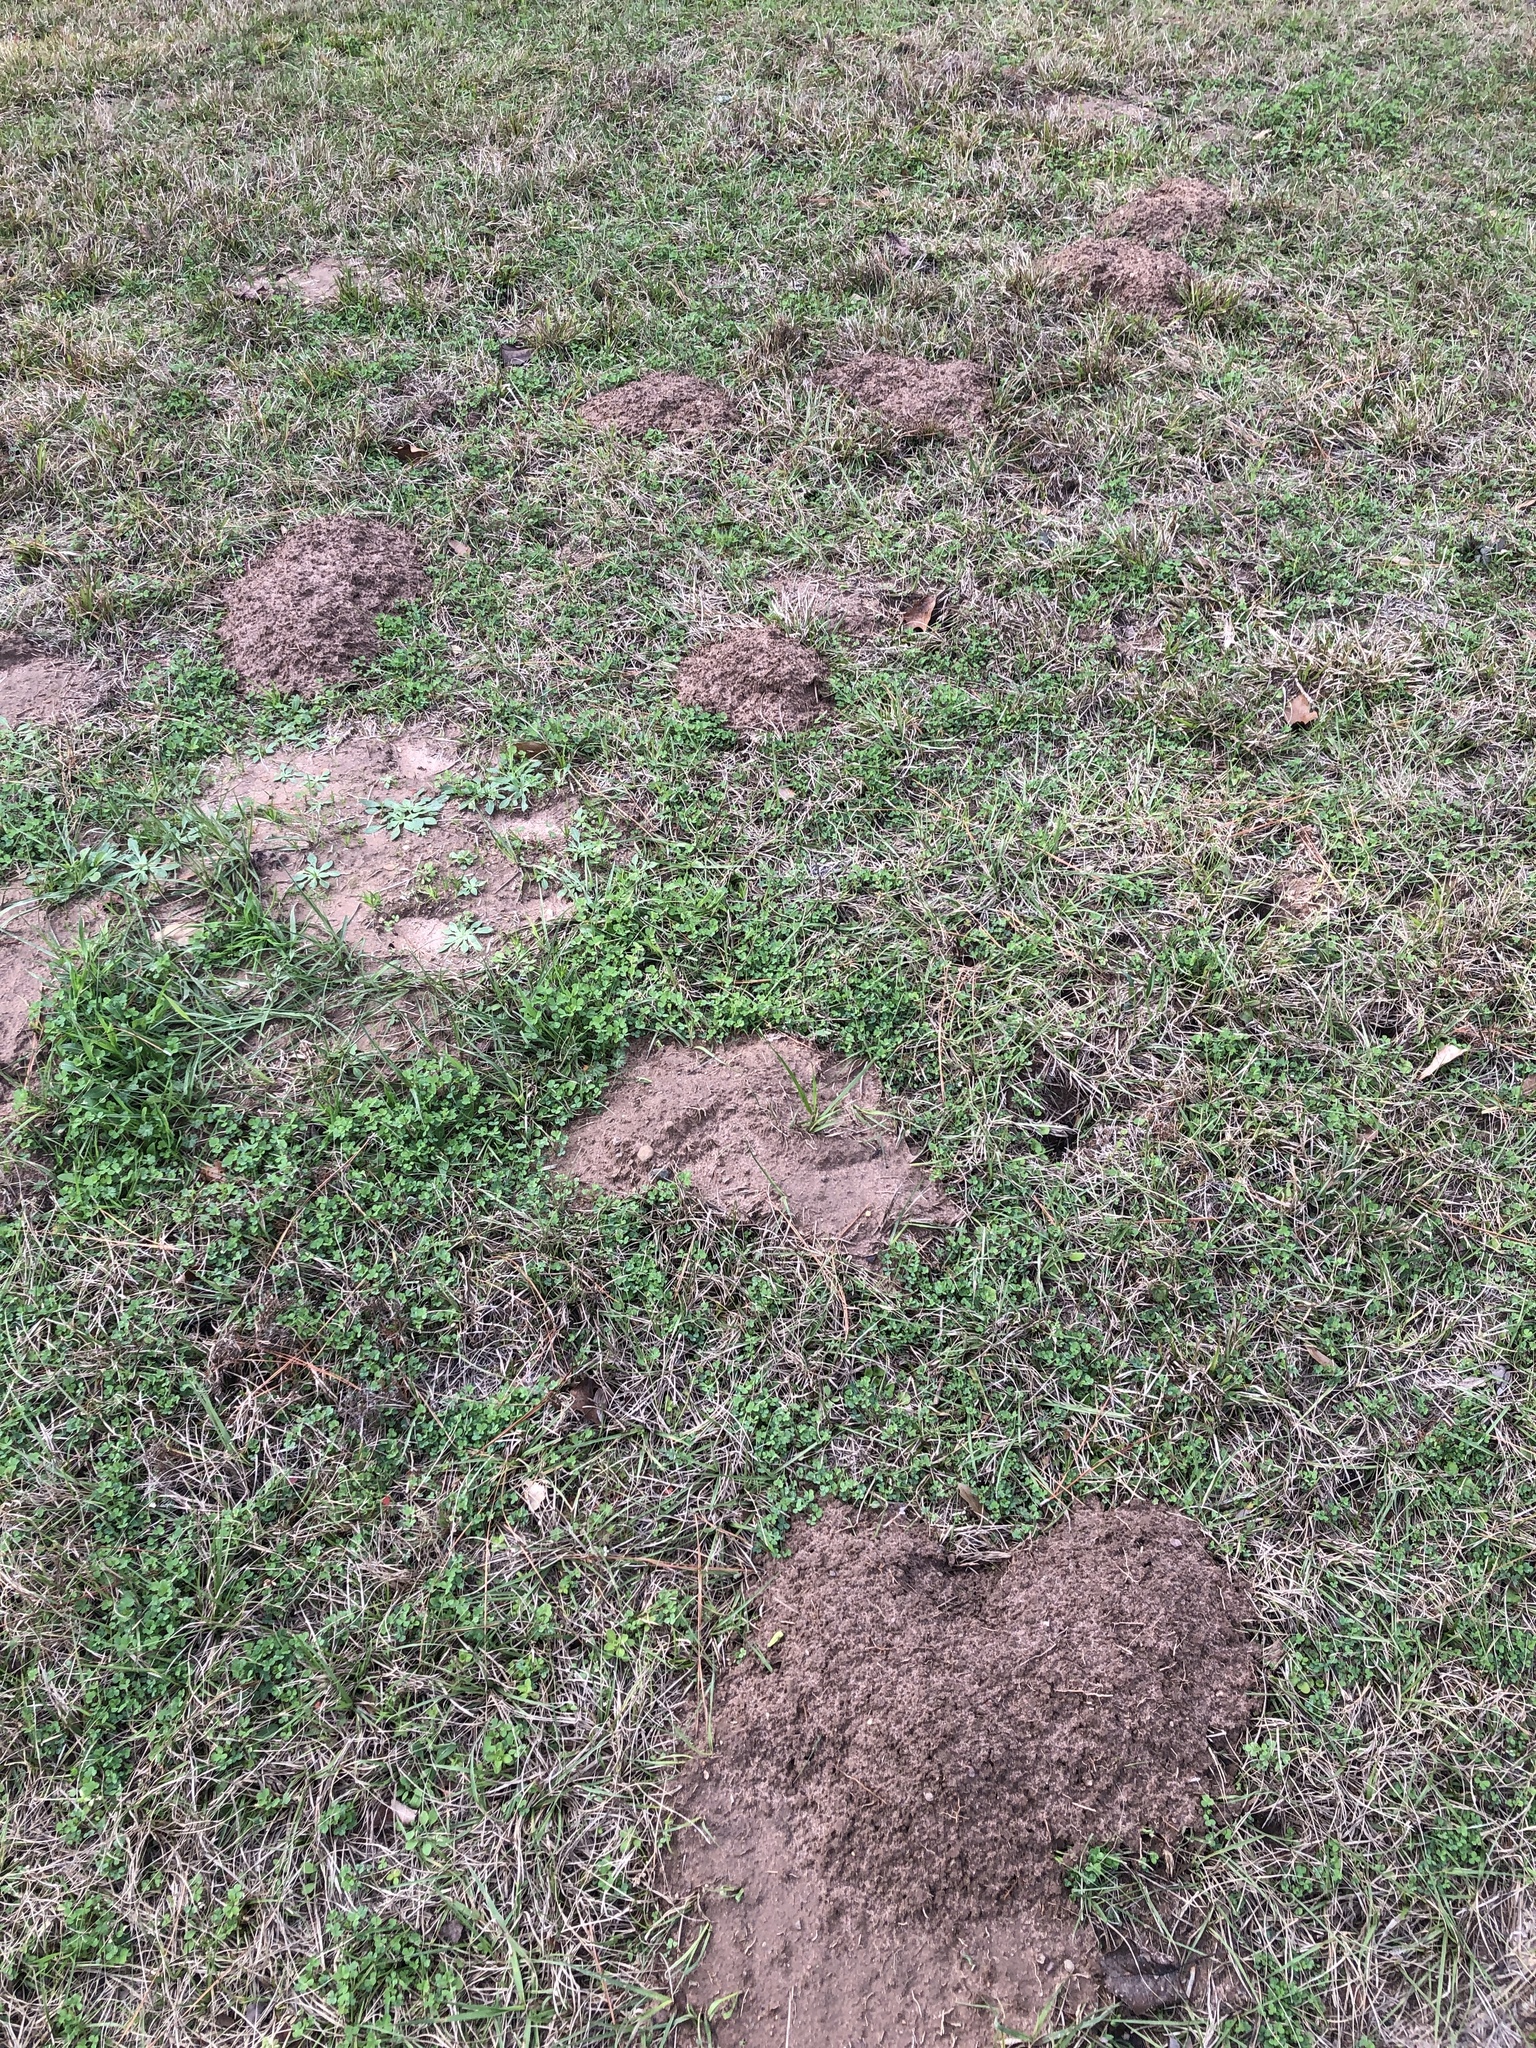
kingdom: Animalia
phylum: Chordata
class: Mammalia
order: Rodentia
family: Geomyidae
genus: Geomys
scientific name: Geomys breviceps
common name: Baird's pocket gopher
